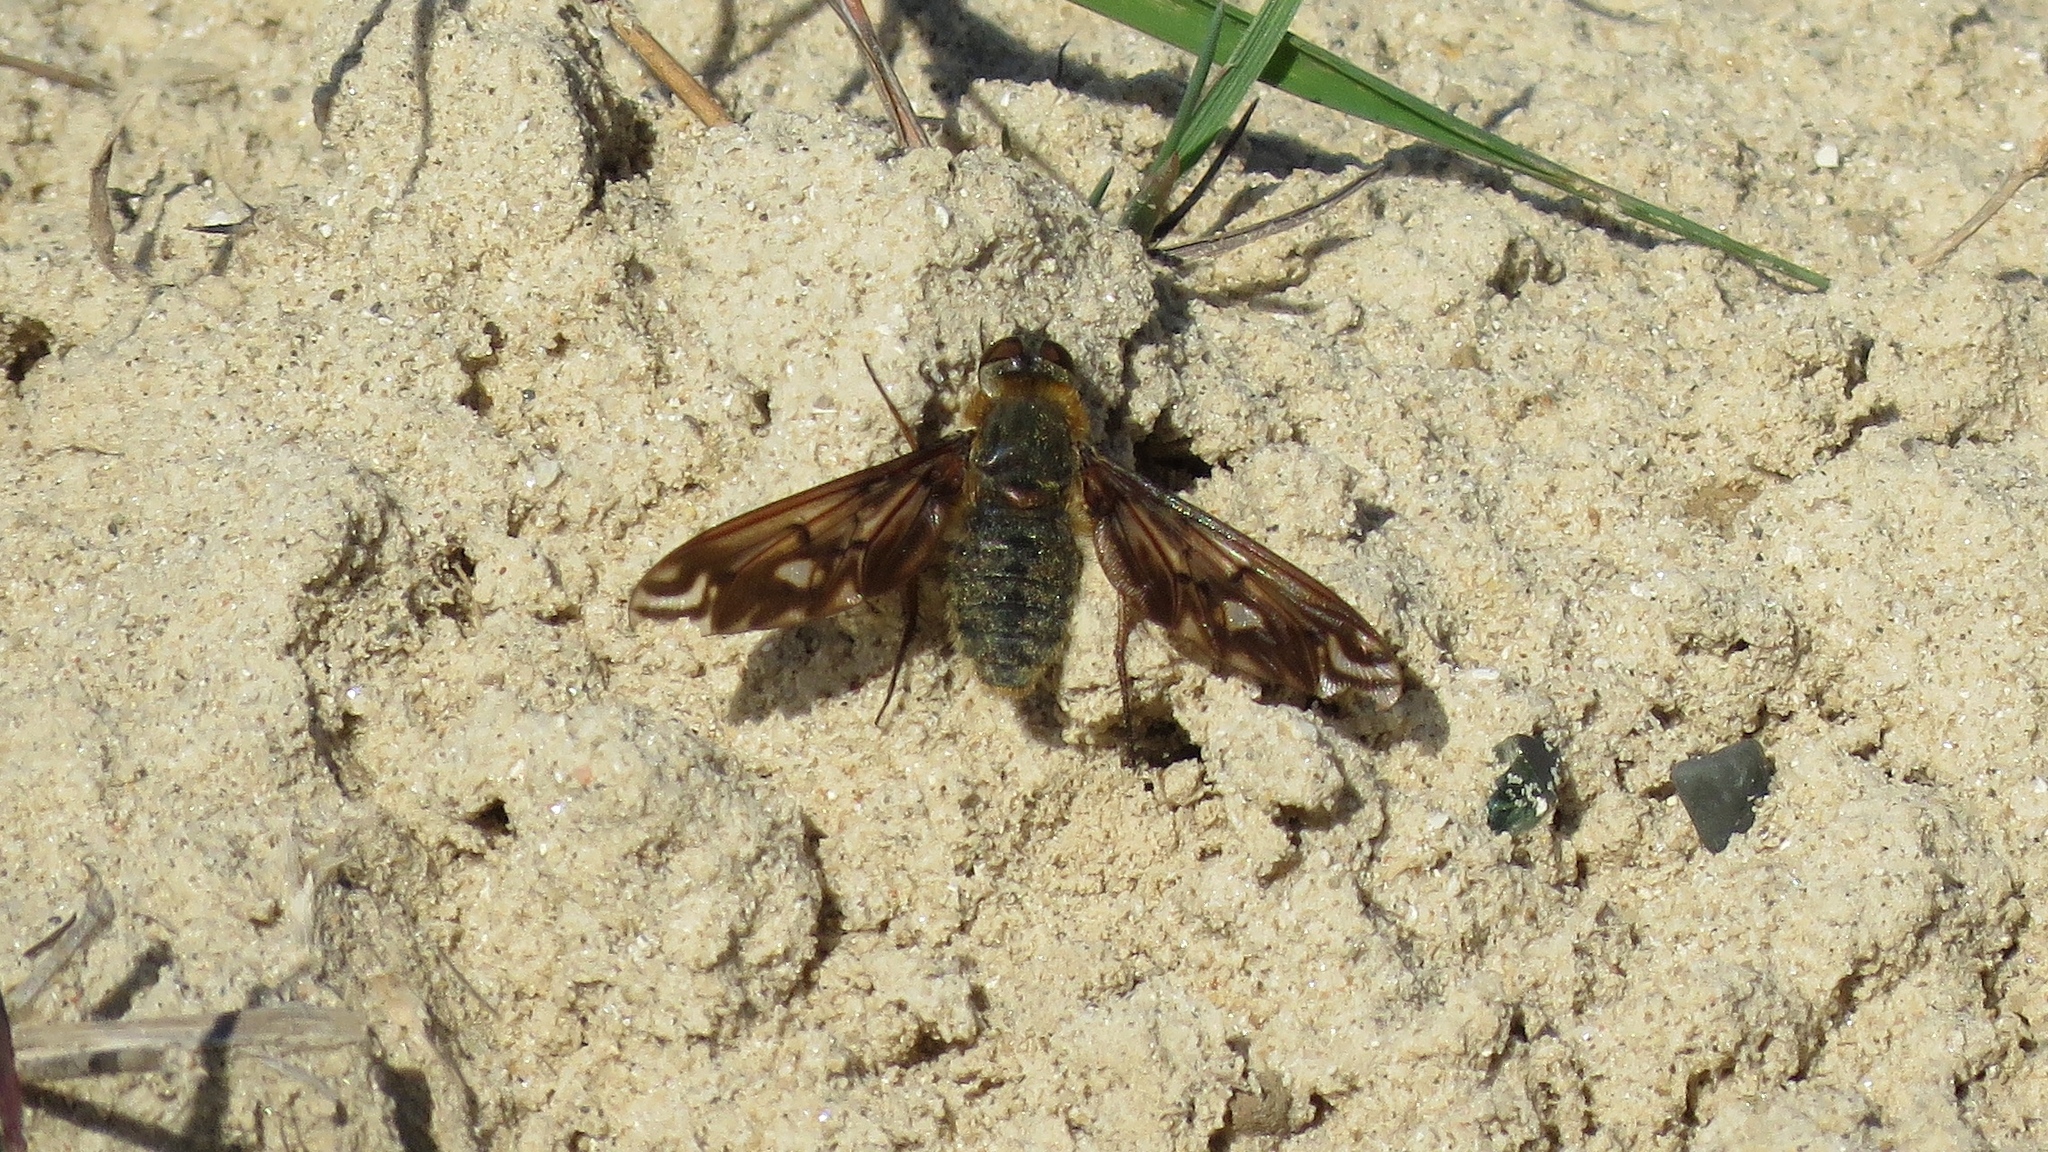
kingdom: Animalia
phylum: Arthropoda
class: Insecta
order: Diptera
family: Bombyliidae
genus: Poecilanthrax
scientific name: Poecilanthrax alcyon
